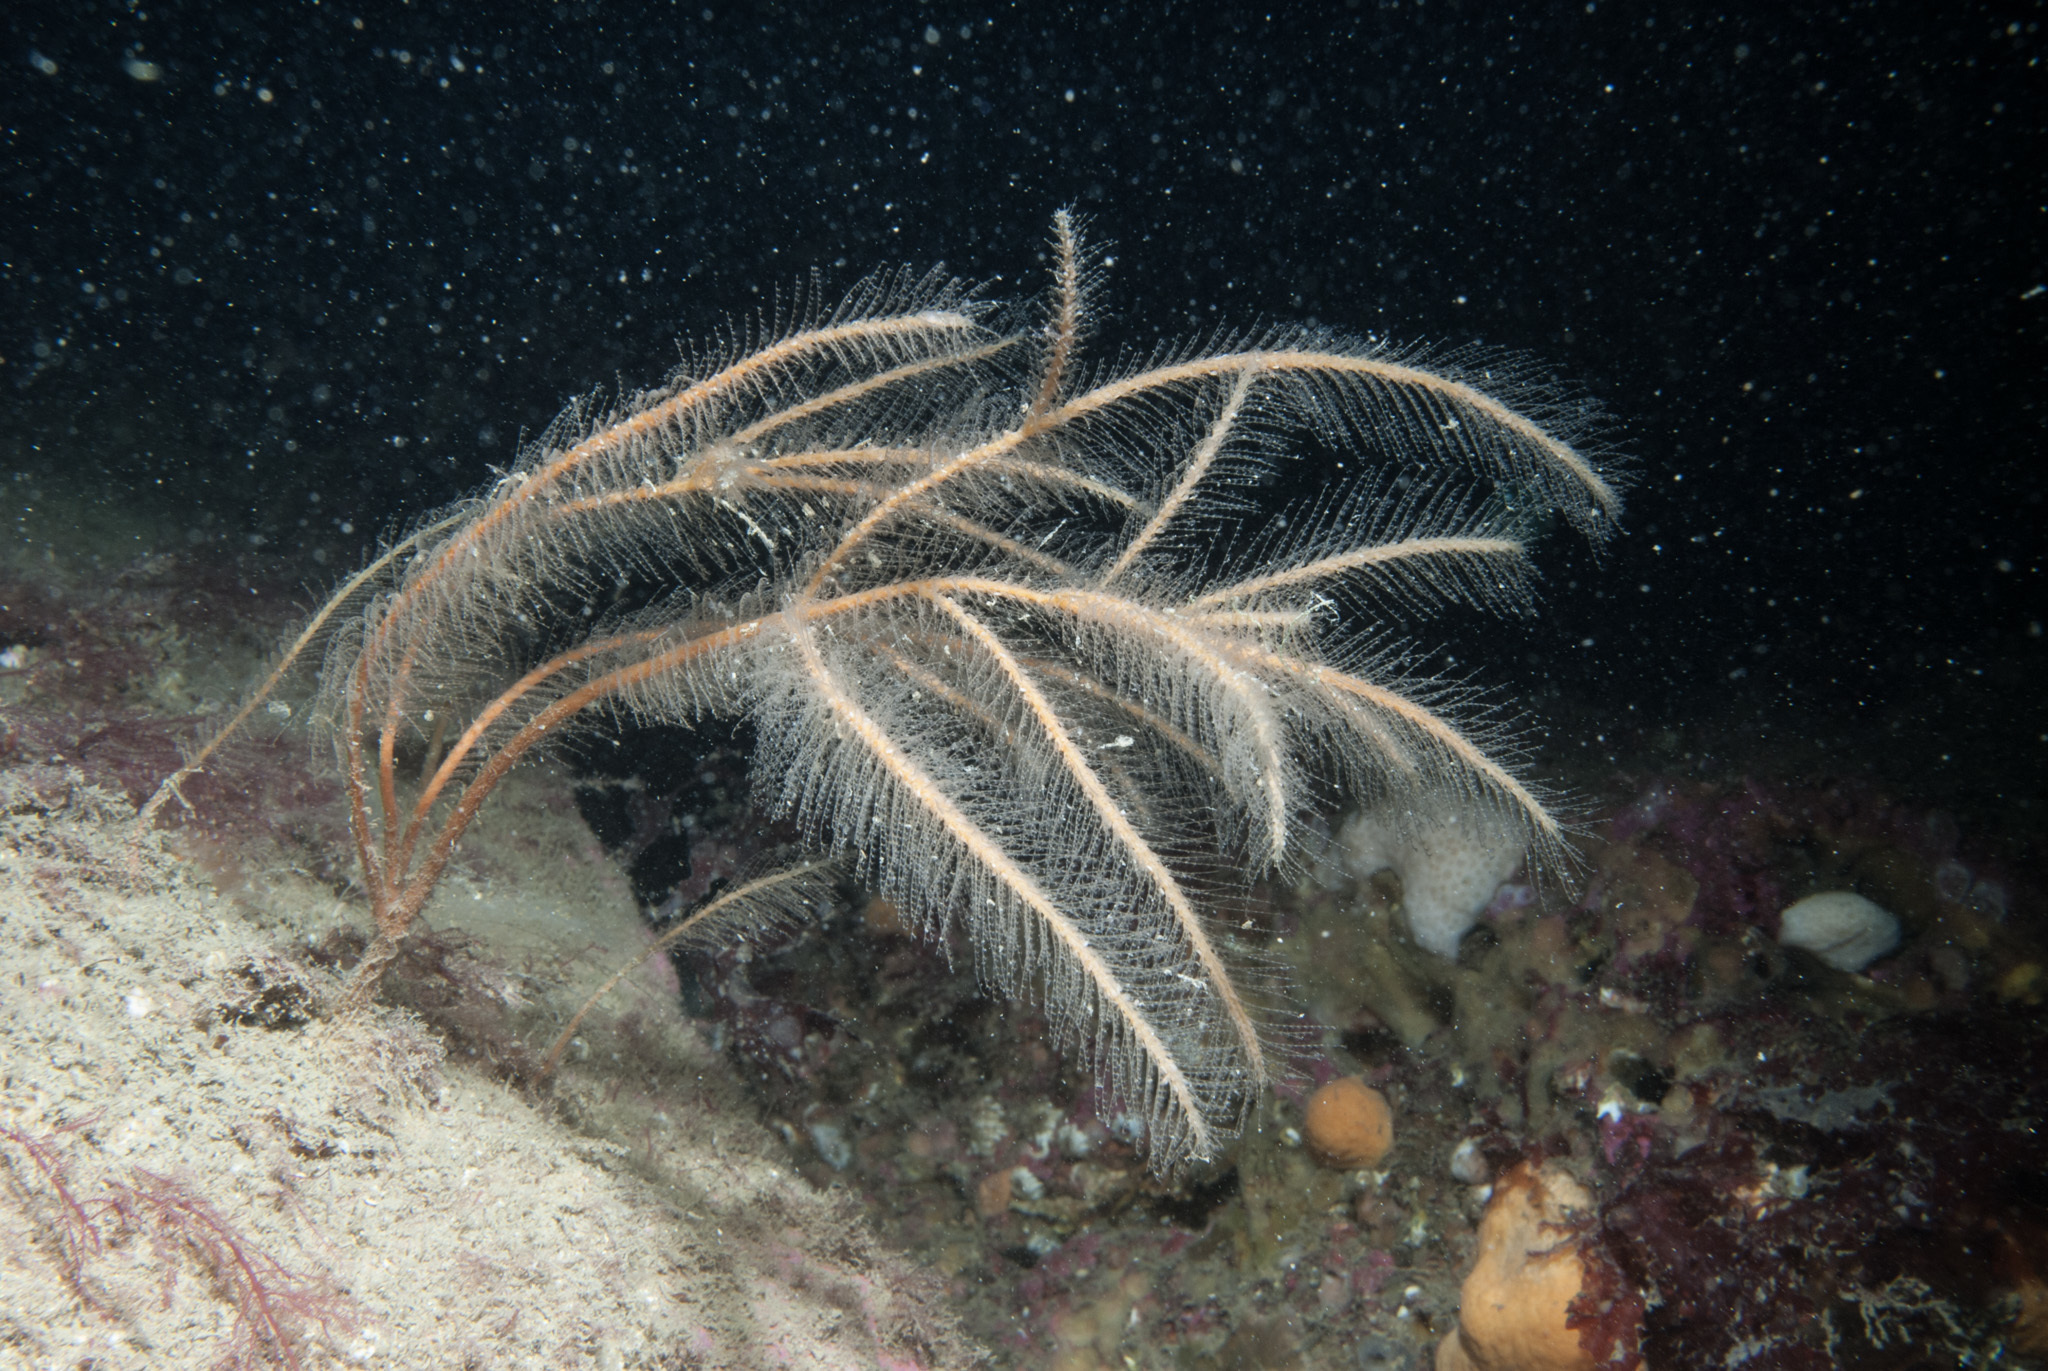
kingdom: Animalia
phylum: Cnidaria
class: Hydrozoa
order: Leptothecata
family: Plumulariidae
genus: Nemertesia
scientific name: Nemertesia ramosa
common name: Hydroid
